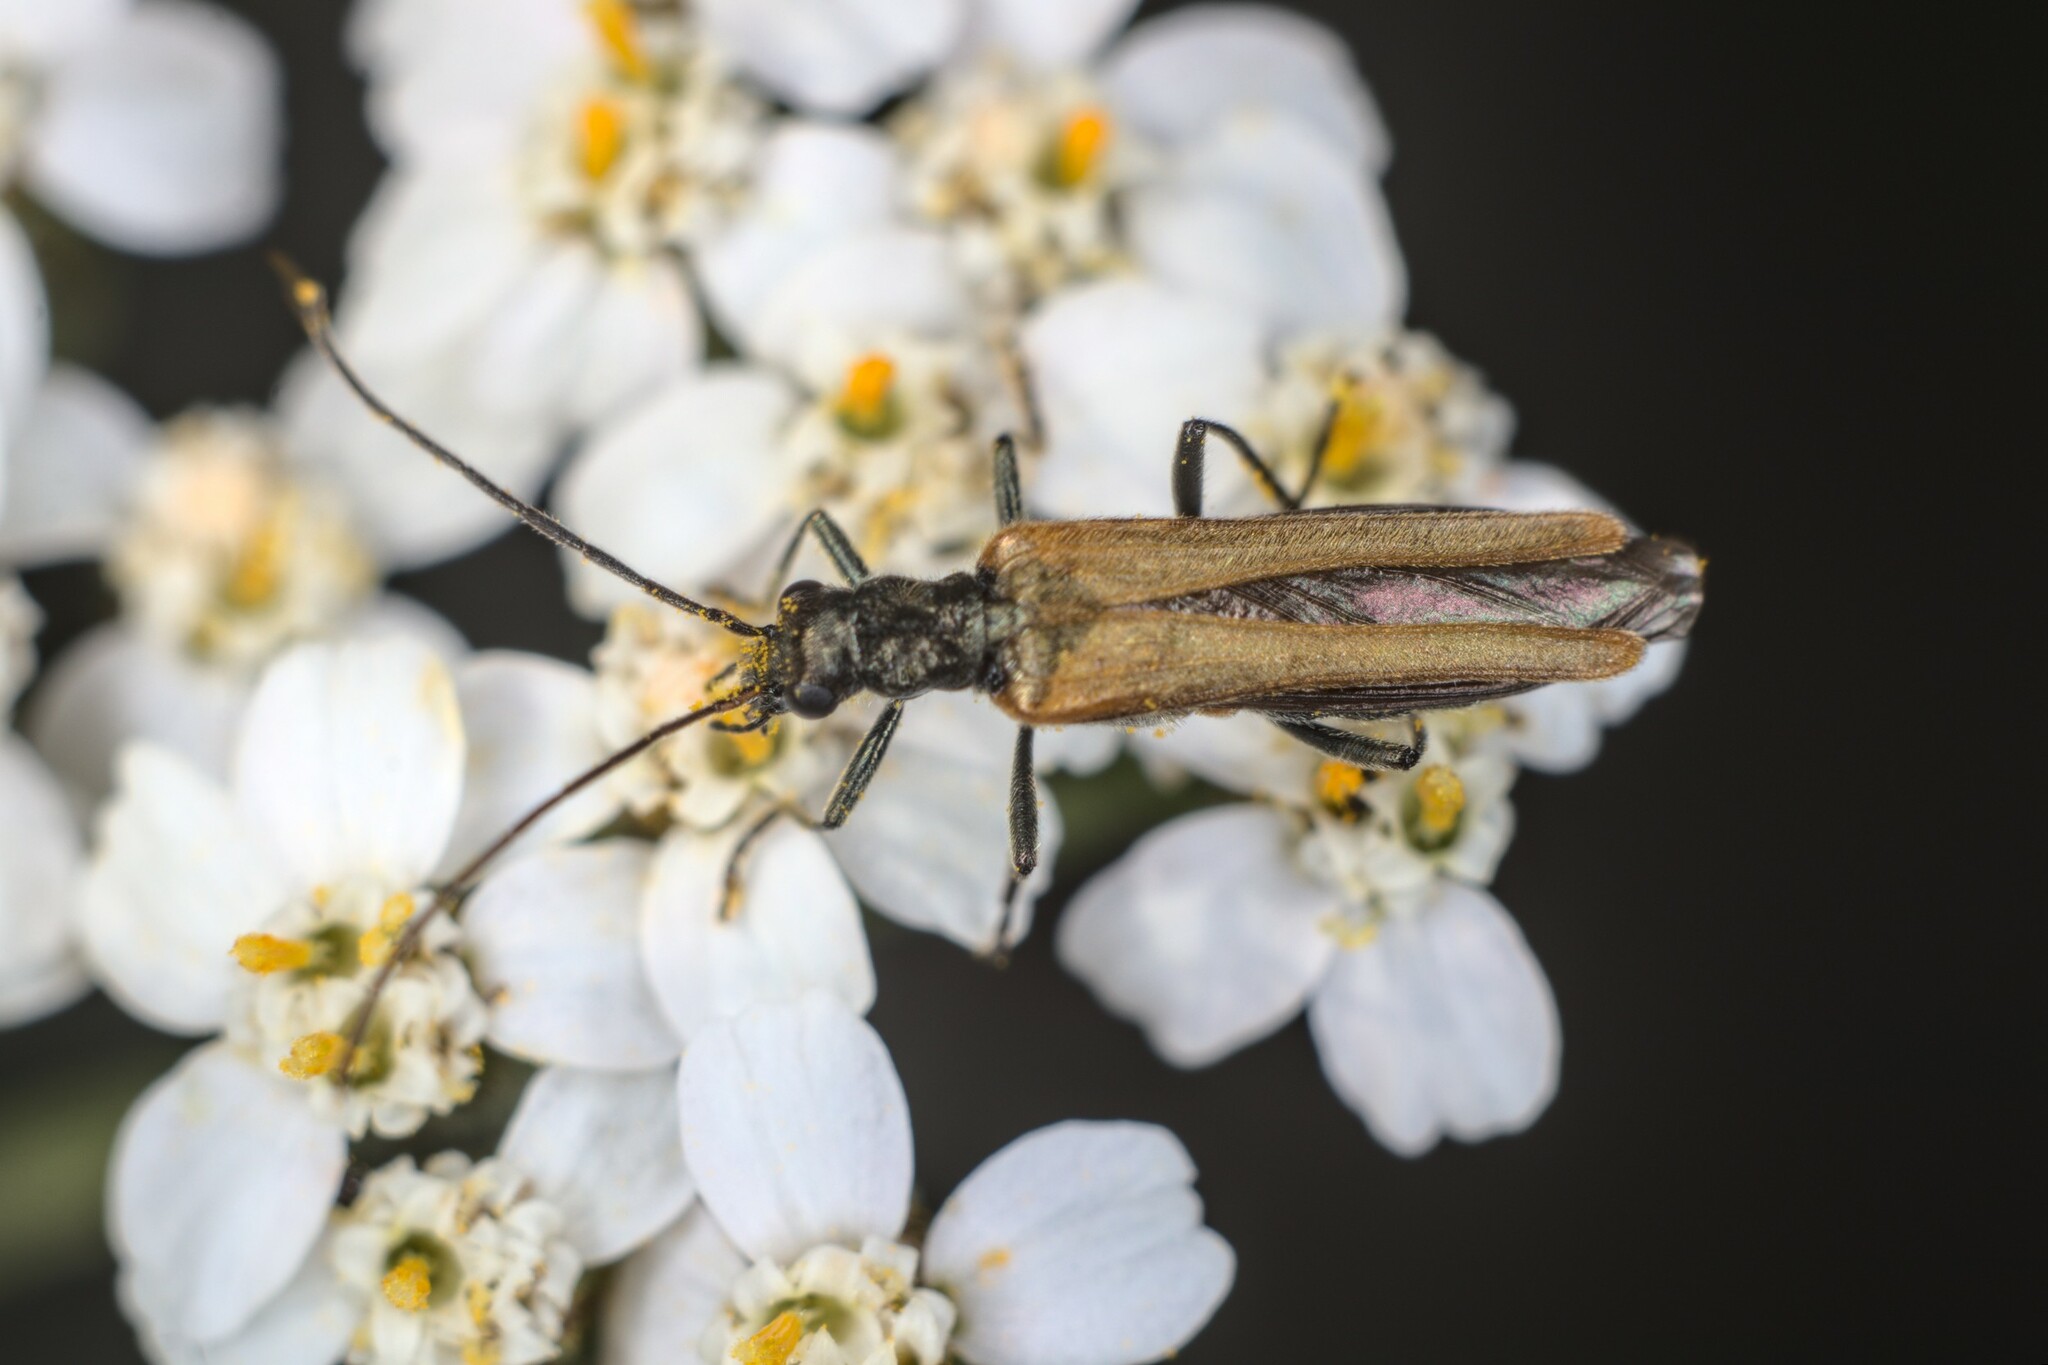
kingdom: Animalia
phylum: Arthropoda
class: Insecta
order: Coleoptera
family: Oedemeridae
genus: Oedemera
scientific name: Oedemera femorata
